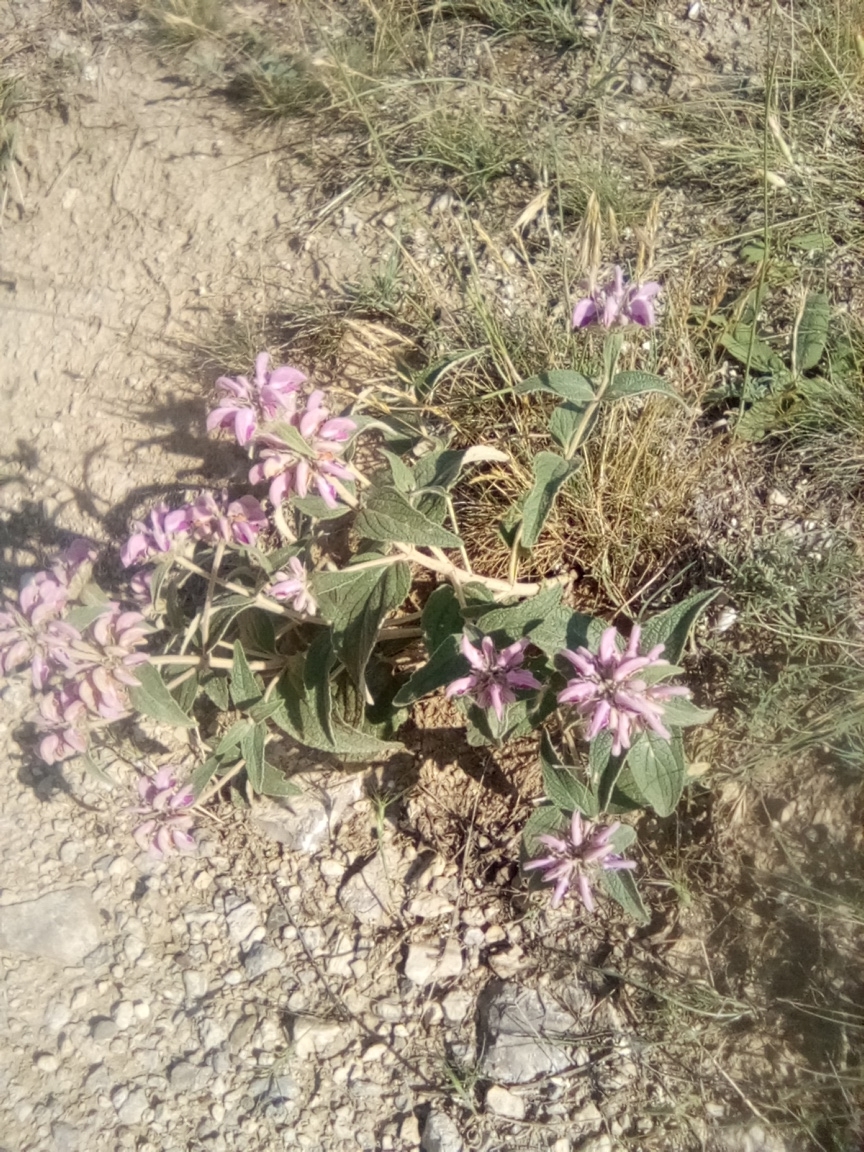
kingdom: Plantae
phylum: Tracheophyta
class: Magnoliopsida
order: Lamiales
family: Lamiaceae
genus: Phlomis
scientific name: Phlomis herba-venti
